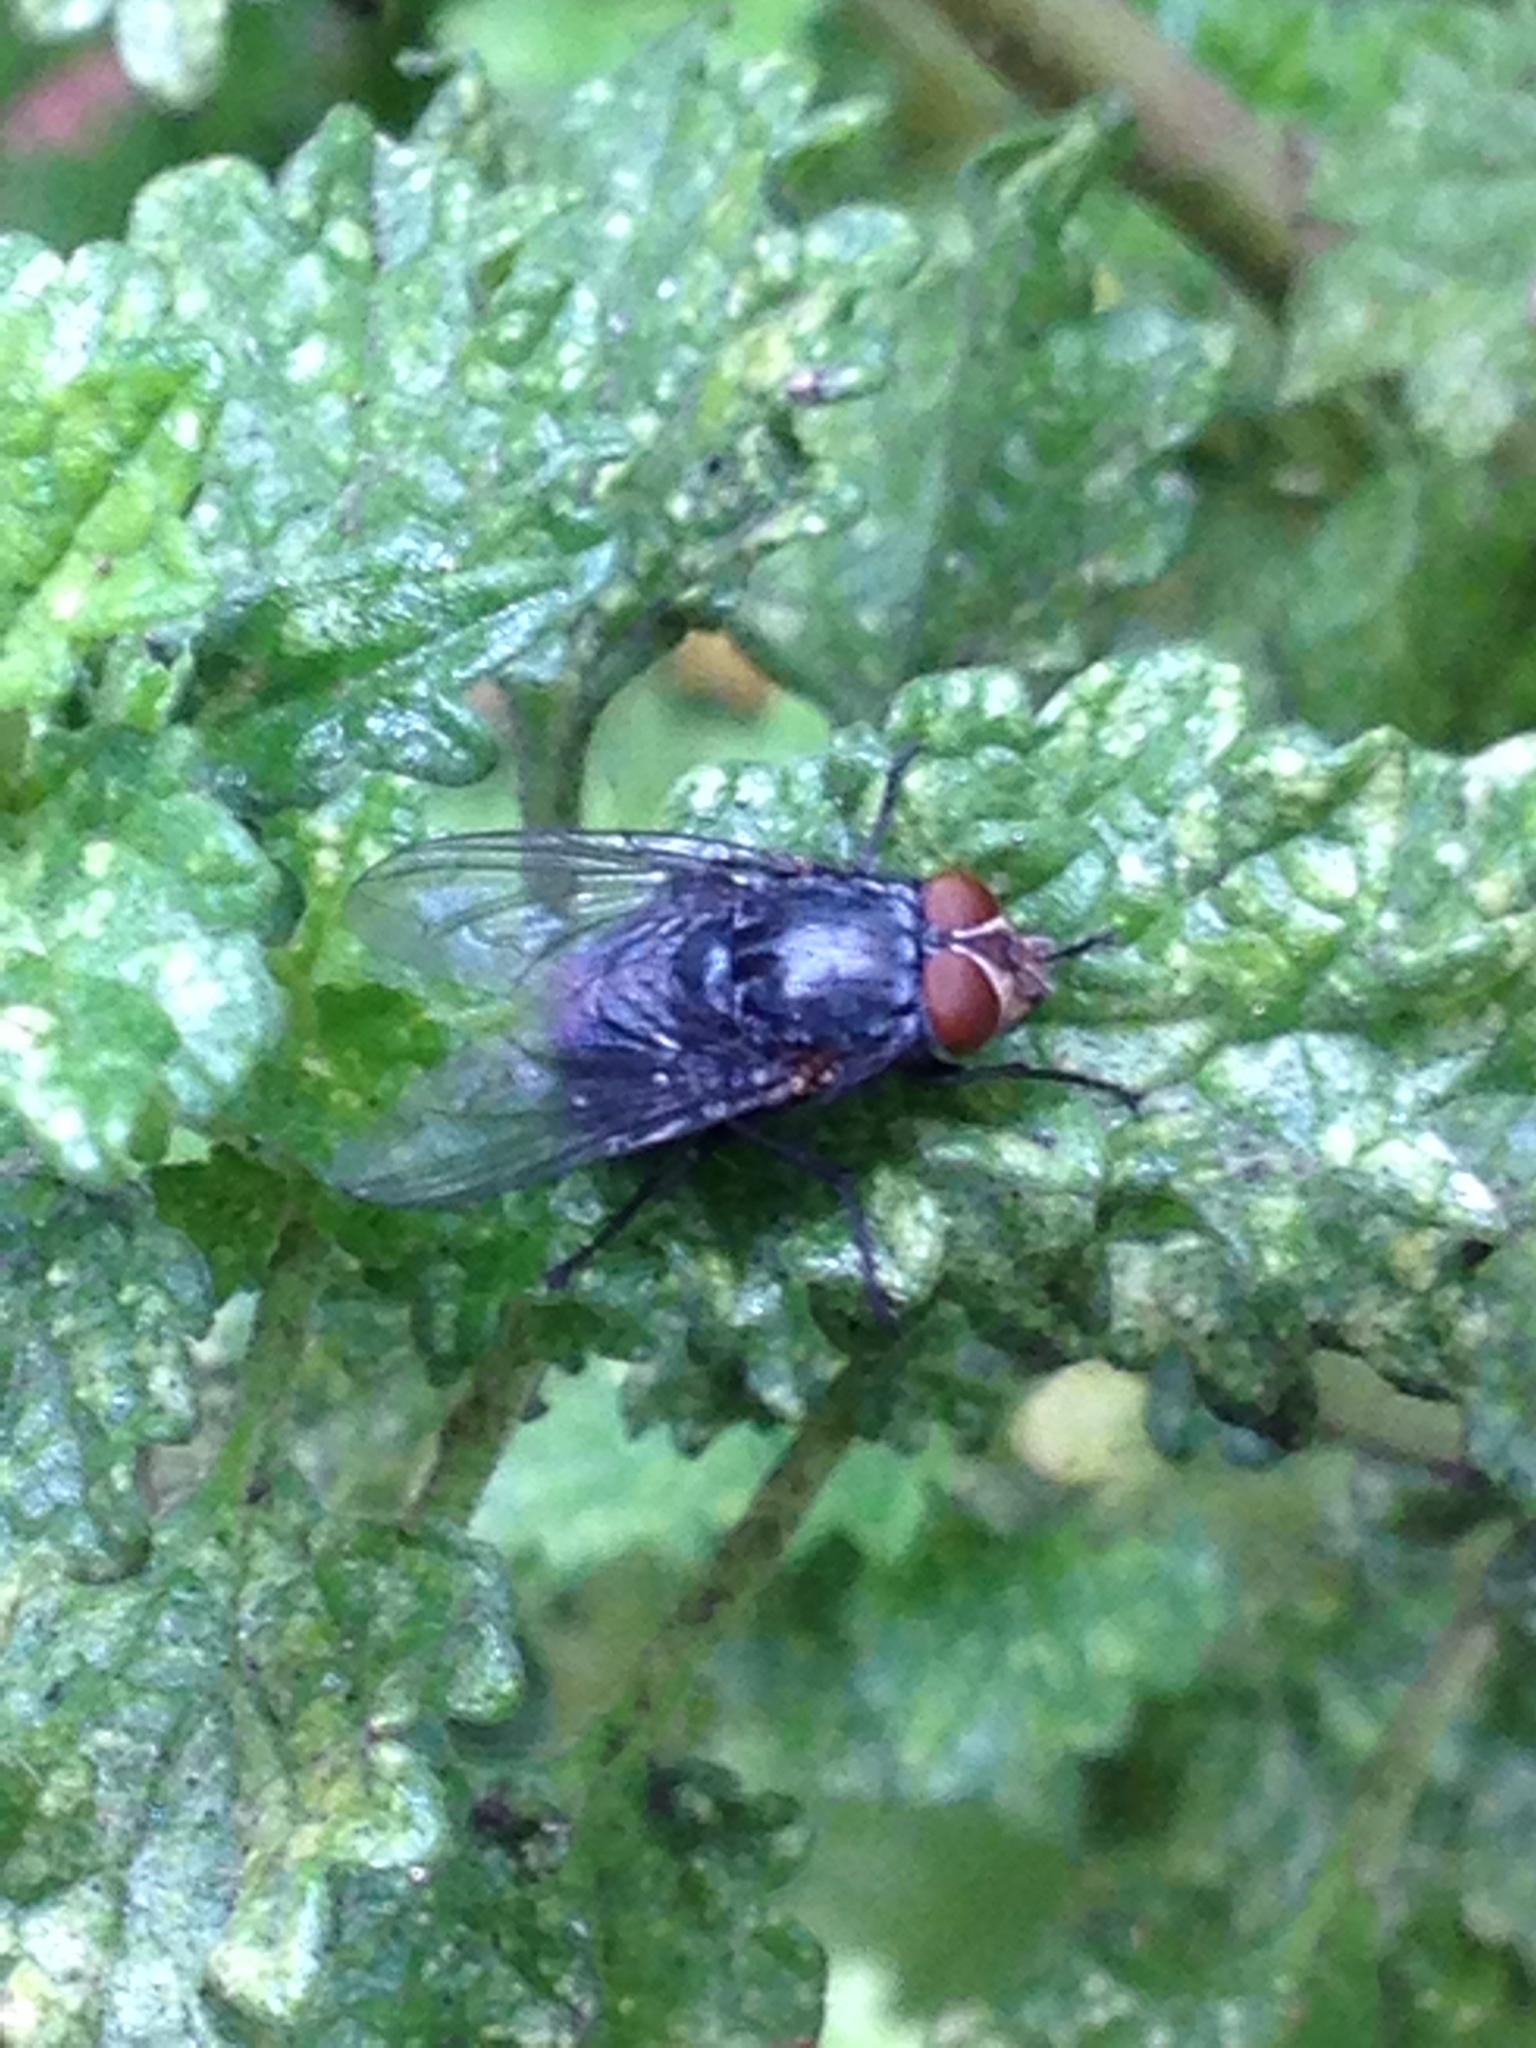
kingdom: Animalia
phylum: Arthropoda
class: Insecta
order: Diptera
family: Calliphoridae
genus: Calliphora
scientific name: Calliphora vicina
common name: Common blow flie
